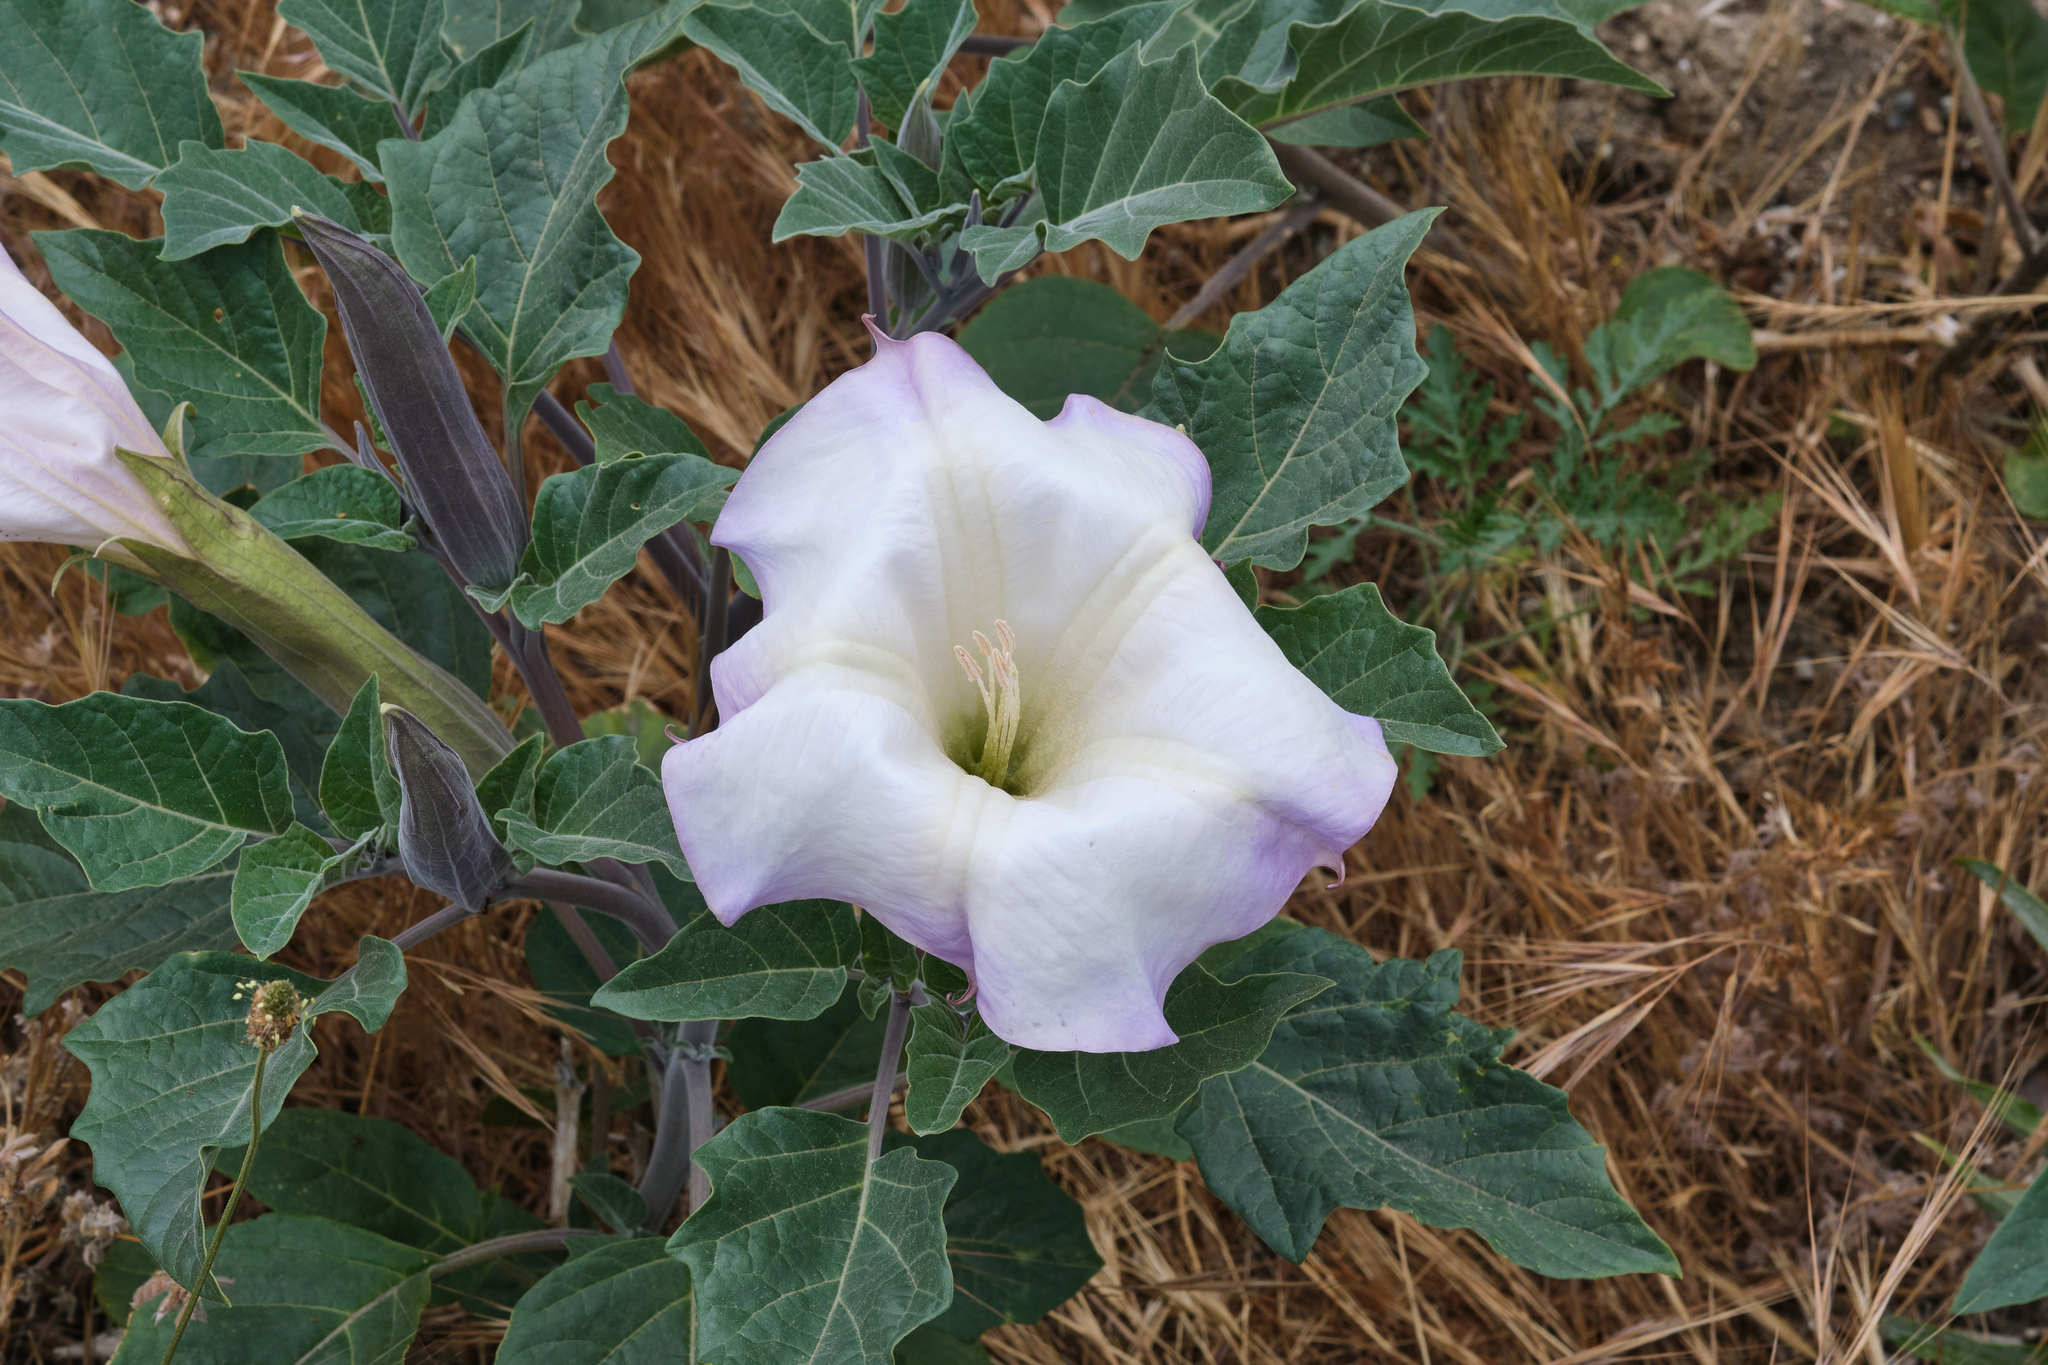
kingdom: Plantae
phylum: Tracheophyta
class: Magnoliopsida
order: Solanales
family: Solanaceae
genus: Datura
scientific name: Datura wrightii
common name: Sacred thorn-apple
